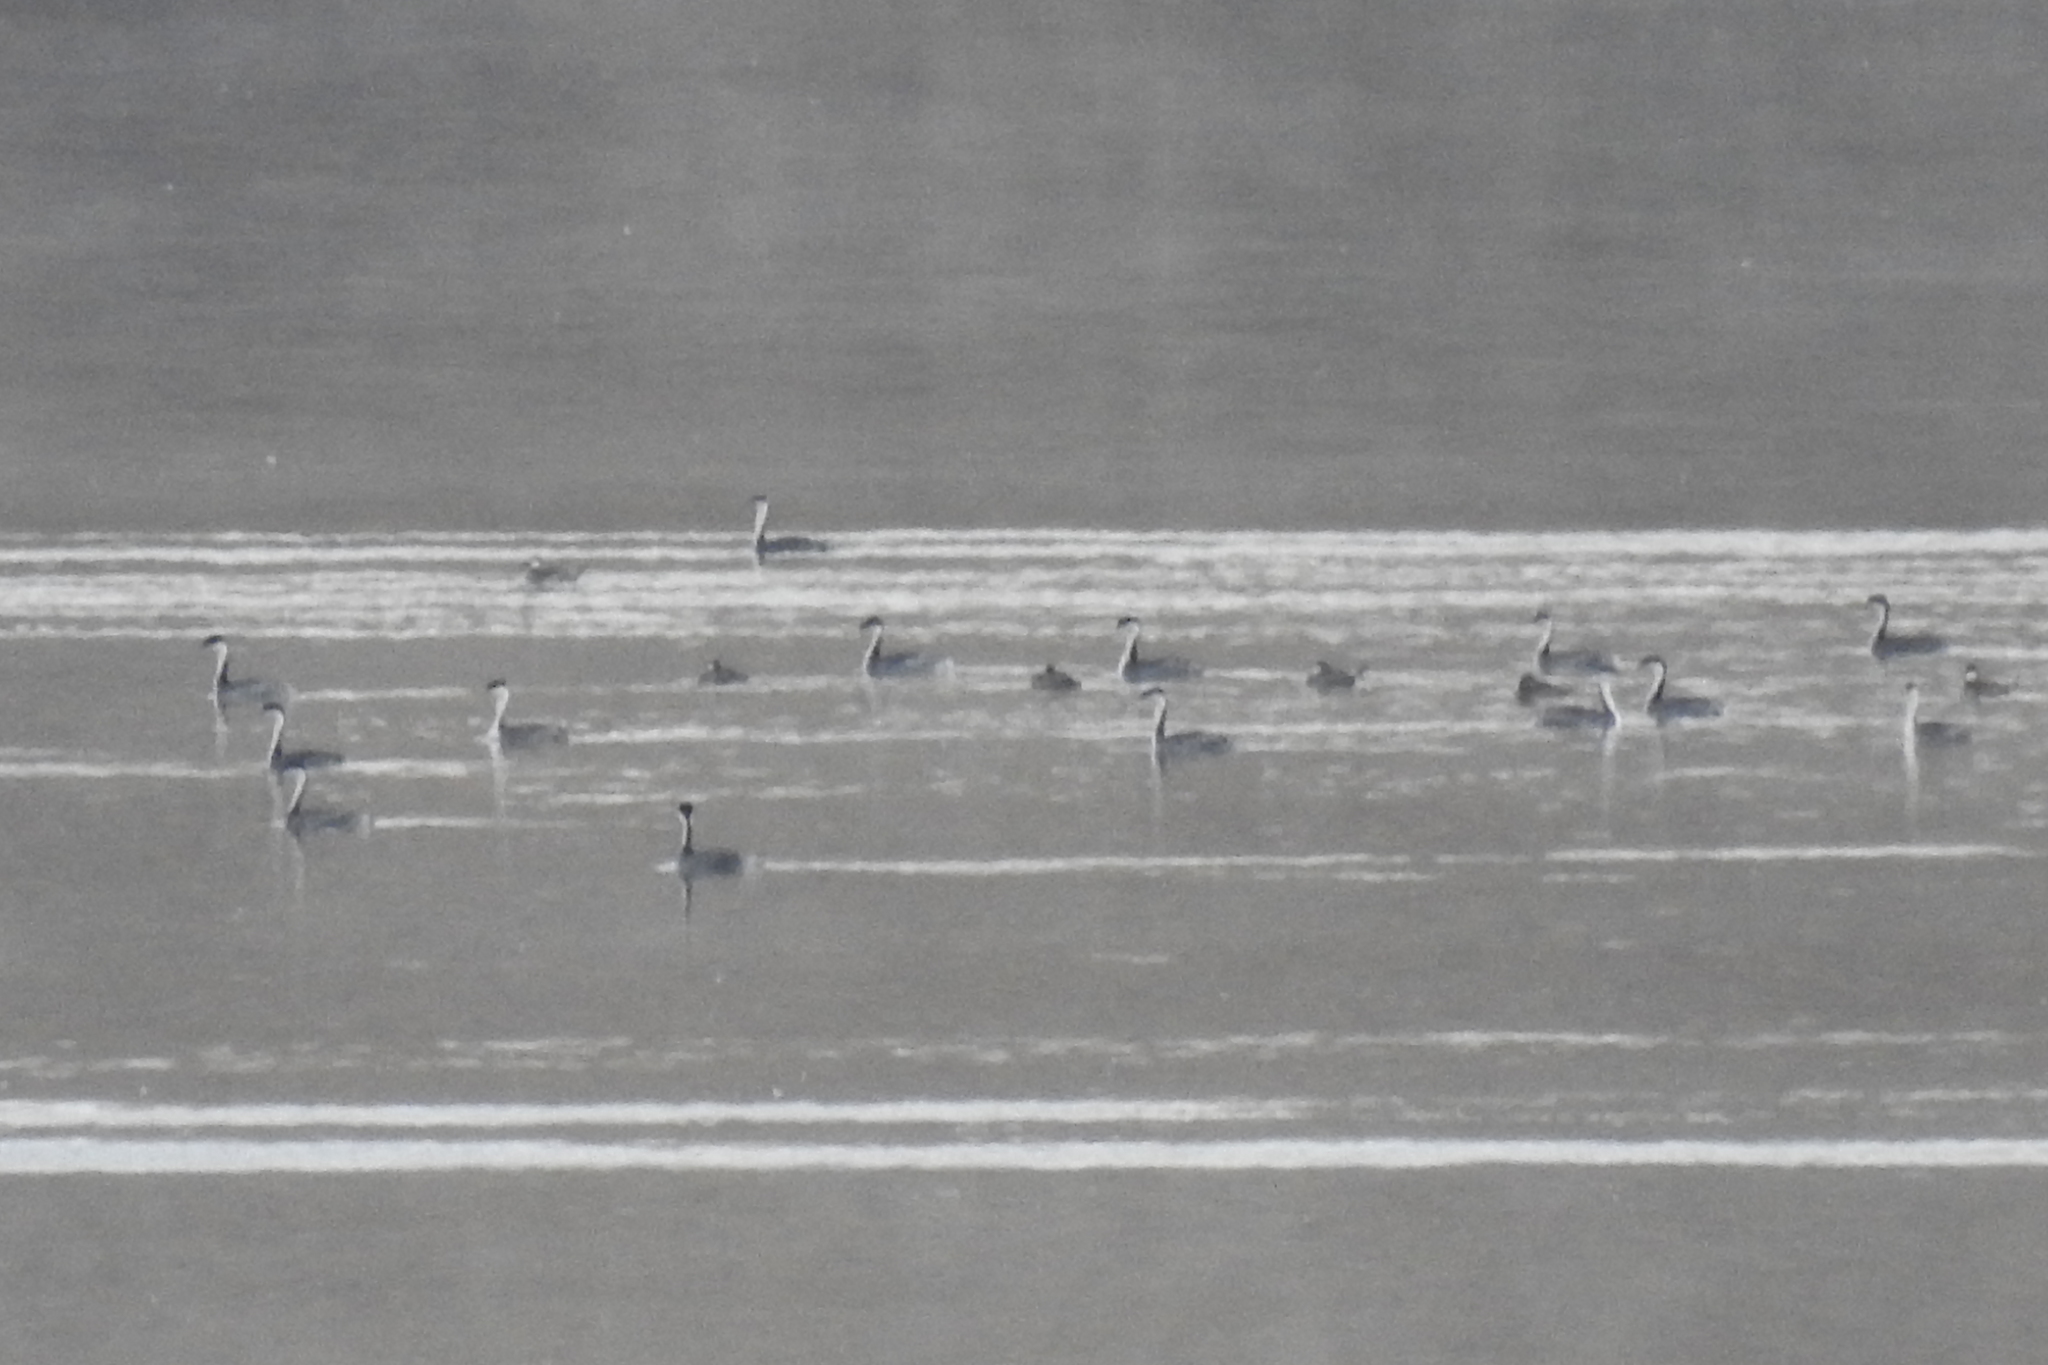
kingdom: Animalia
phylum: Chordata
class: Aves
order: Podicipediformes
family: Podicipedidae
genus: Aechmophorus
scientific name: Aechmophorus occidentalis
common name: Western grebe
